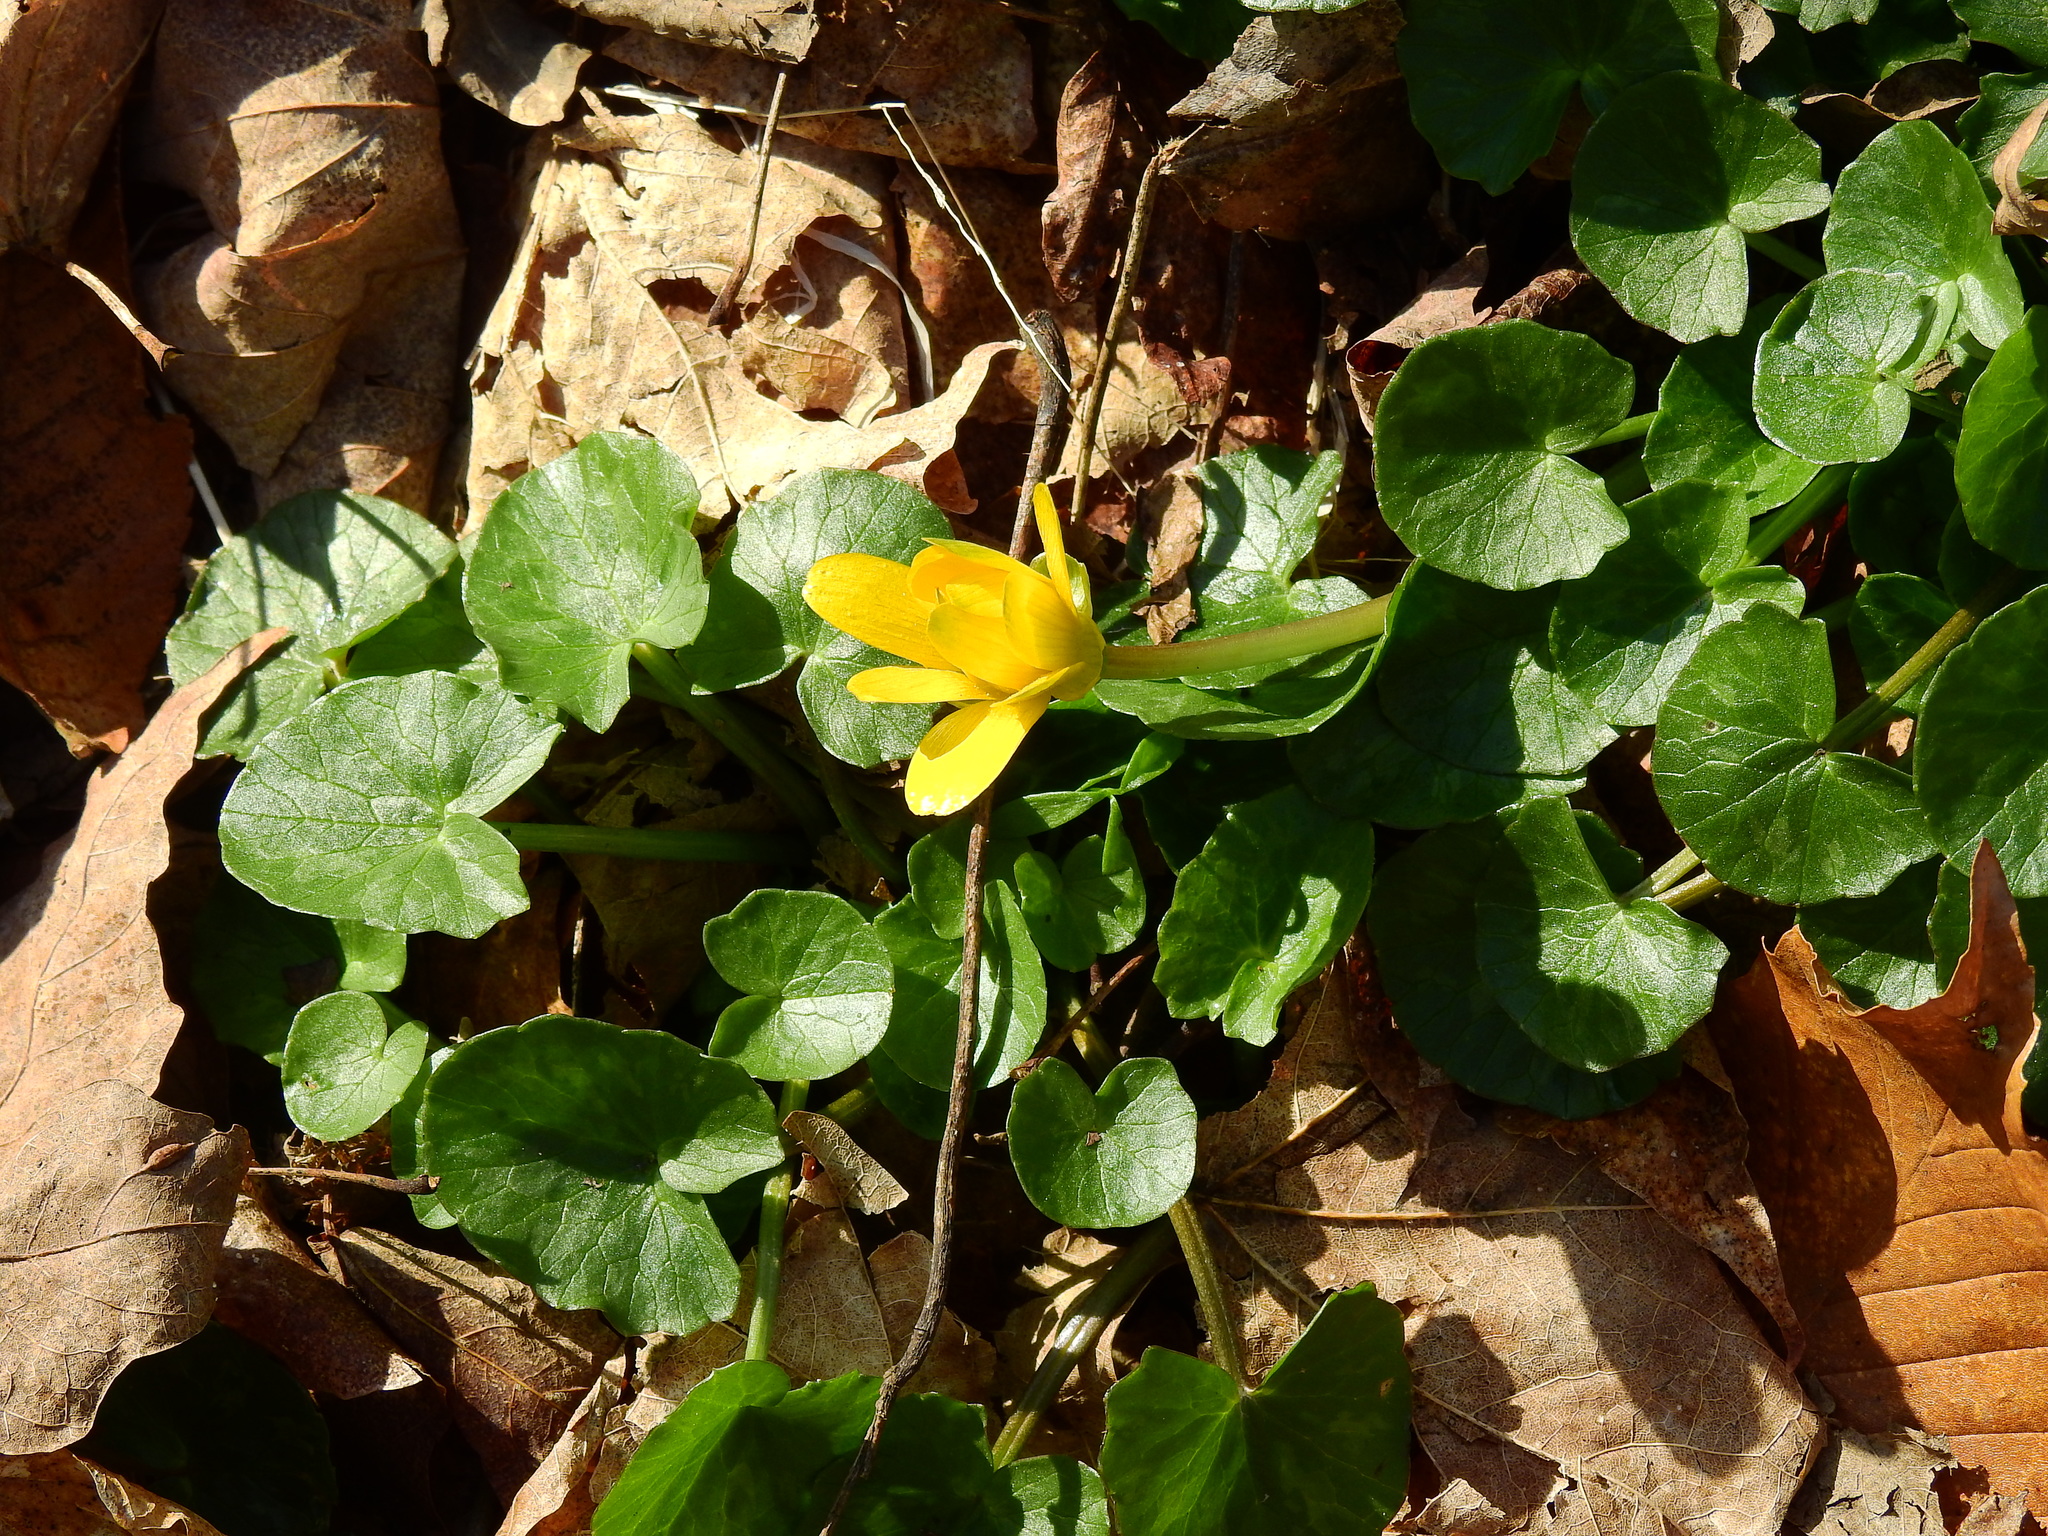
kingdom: Plantae
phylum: Tracheophyta
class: Magnoliopsida
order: Ranunculales
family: Ranunculaceae
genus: Ficaria
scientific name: Ficaria verna
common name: Lesser celandine
